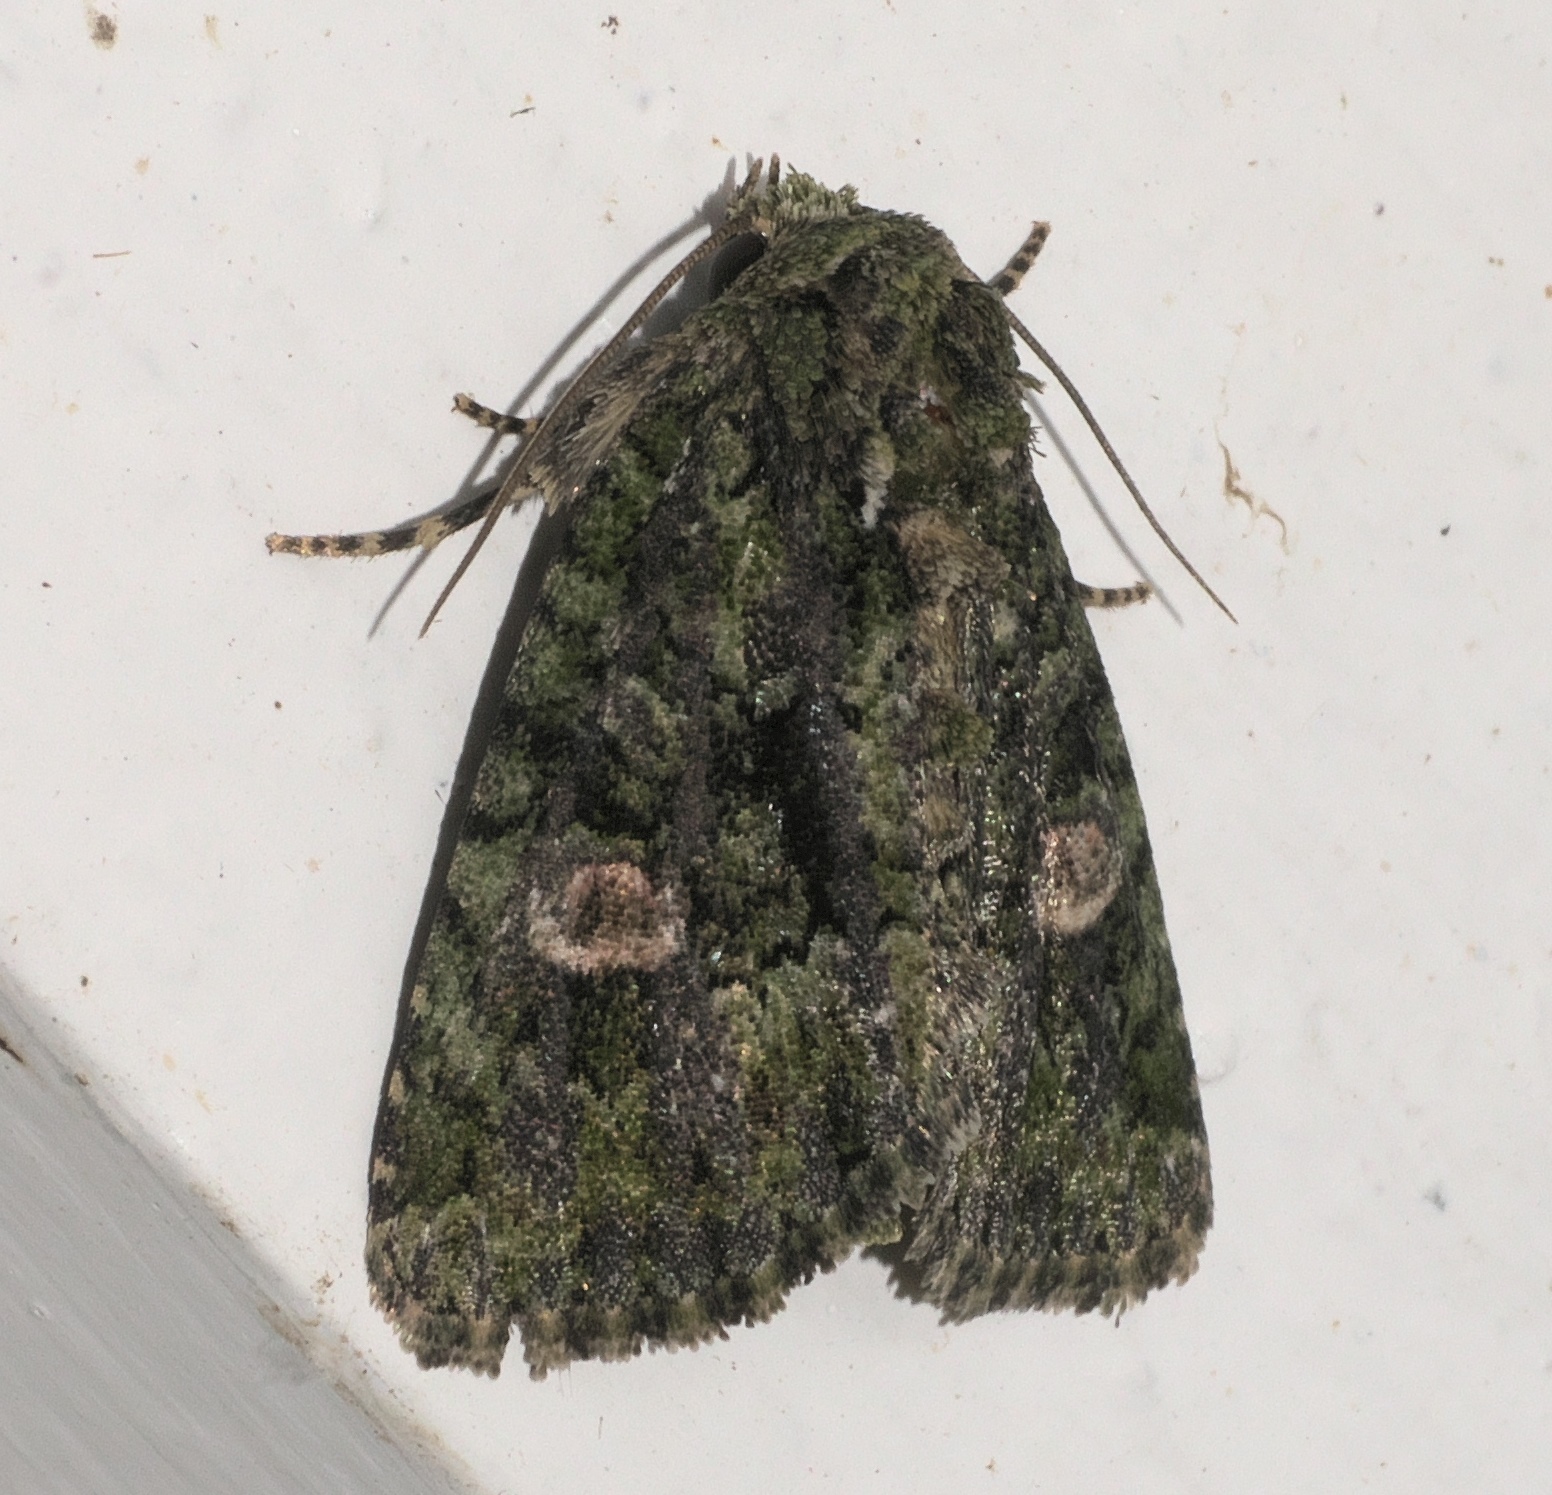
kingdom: Animalia
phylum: Arthropoda
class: Insecta
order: Lepidoptera
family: Noctuidae
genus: Phosphila
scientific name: Phosphila miselioides
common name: Spotted phosphila moth
